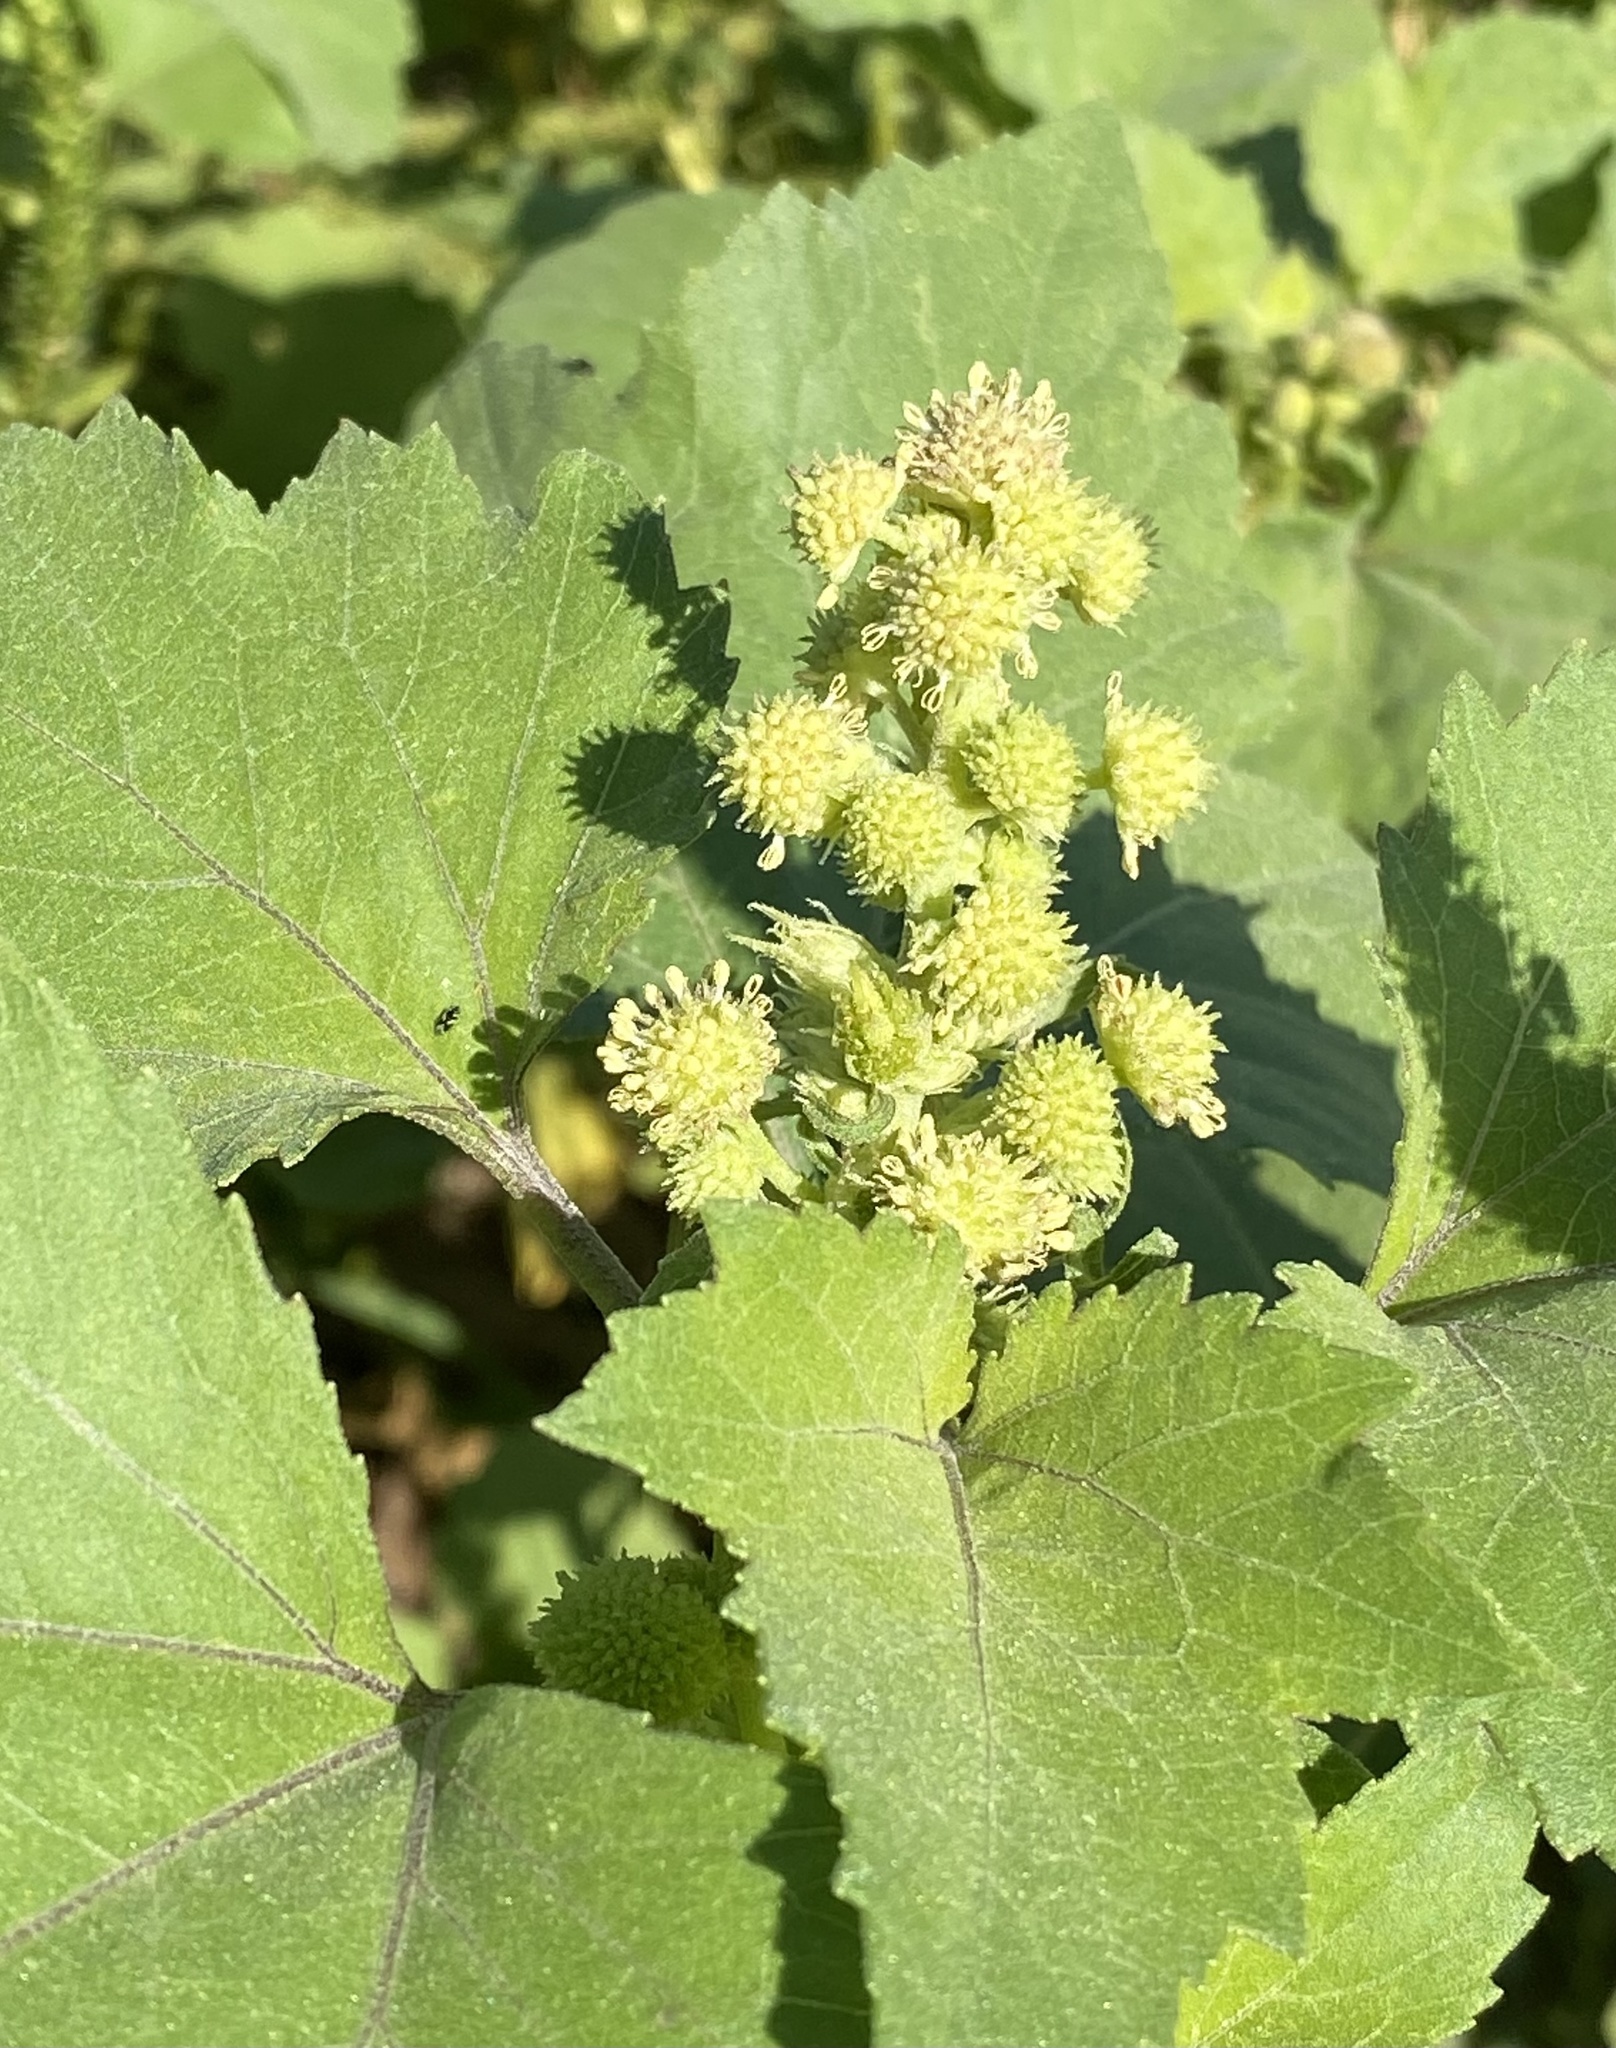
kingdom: Plantae
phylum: Tracheophyta
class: Magnoliopsida
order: Asterales
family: Asteraceae
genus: Xanthium
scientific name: Xanthium strumarium
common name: Rough cocklebur
